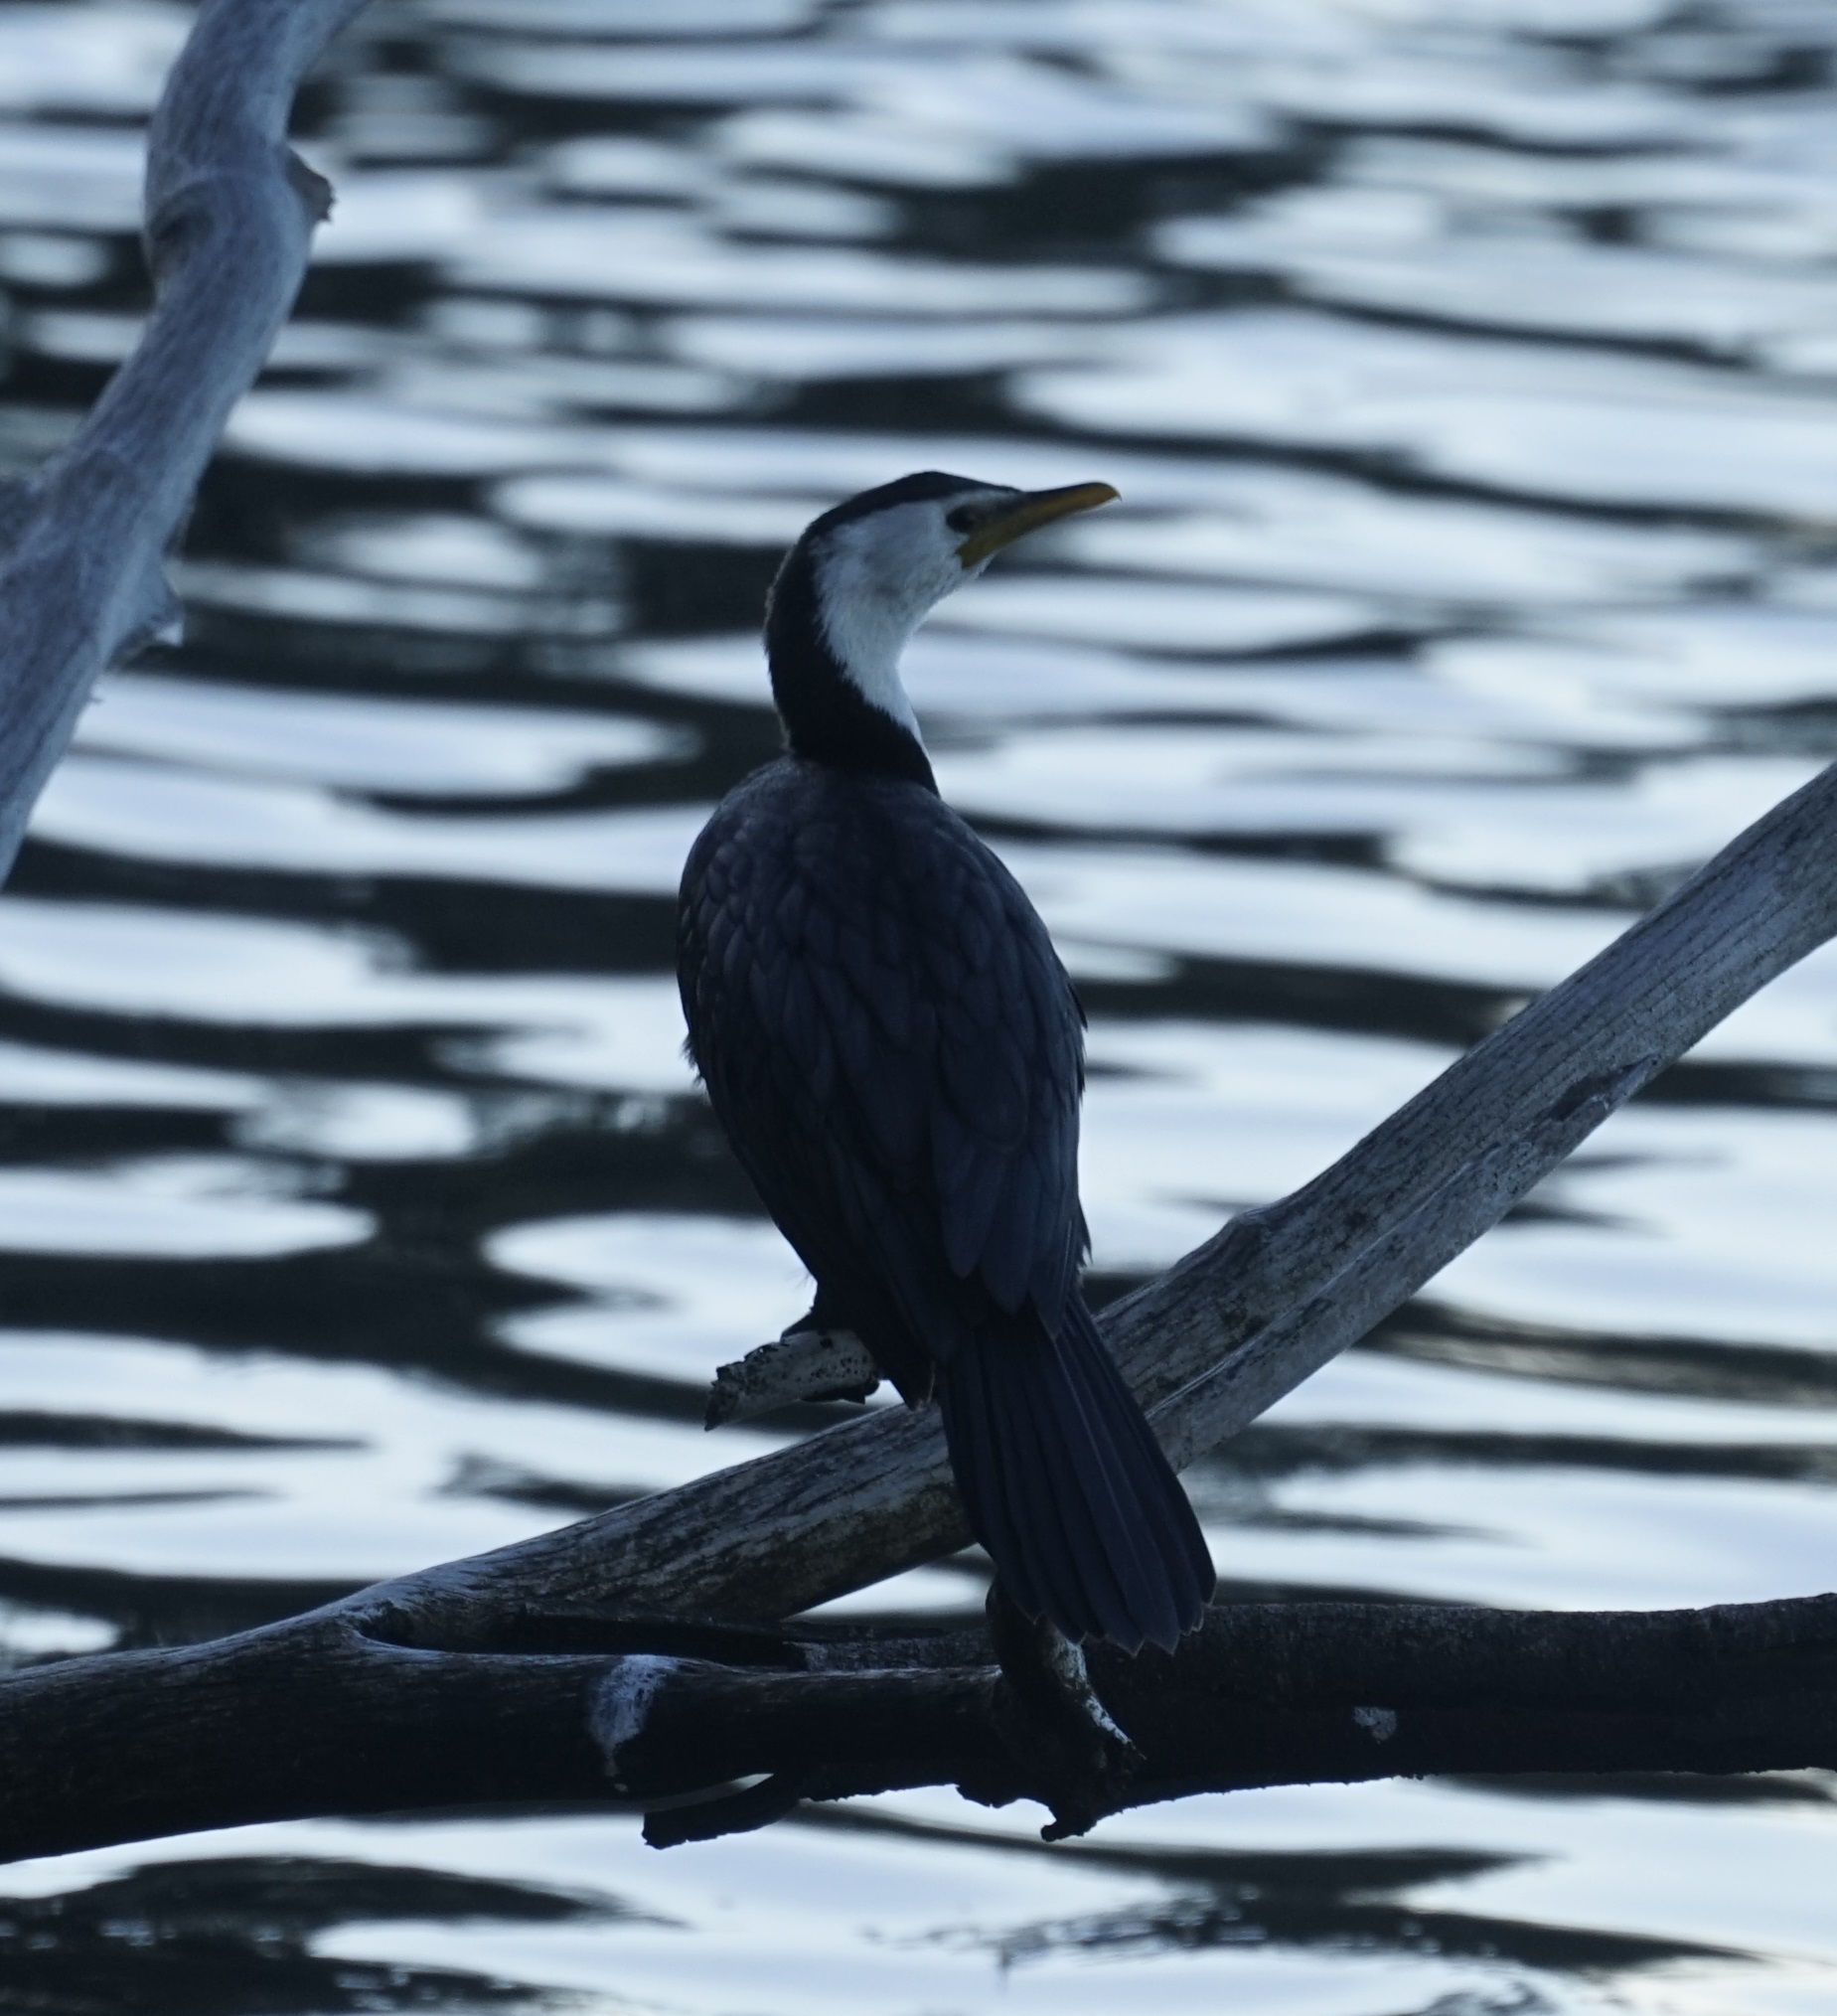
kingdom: Animalia
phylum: Chordata
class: Aves
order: Suliformes
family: Phalacrocoracidae
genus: Microcarbo
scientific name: Microcarbo melanoleucos
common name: Little pied cormorant
